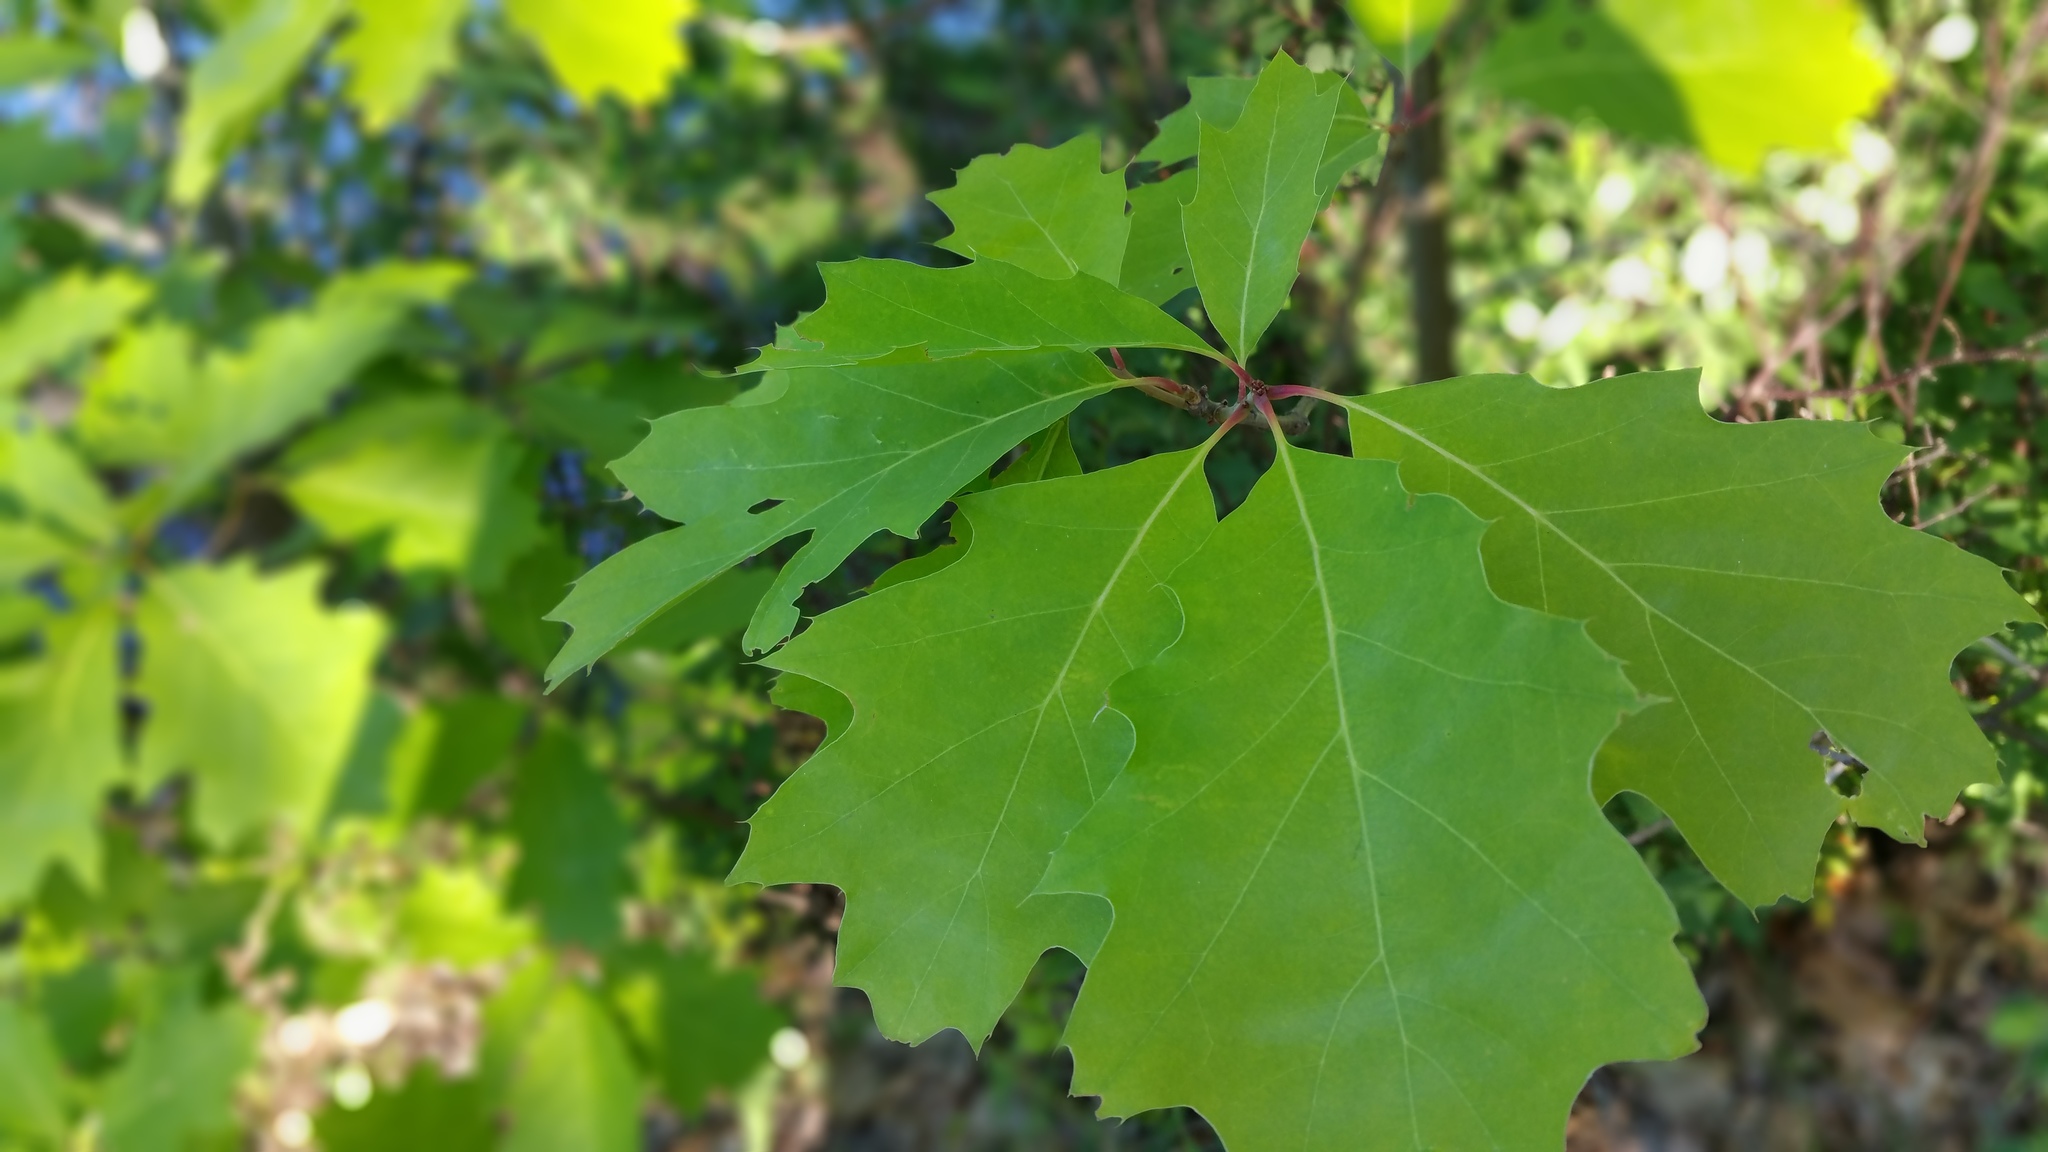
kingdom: Plantae
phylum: Tracheophyta
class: Magnoliopsida
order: Fagales
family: Fagaceae
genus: Quercus
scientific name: Quercus rubra
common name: Red oak
